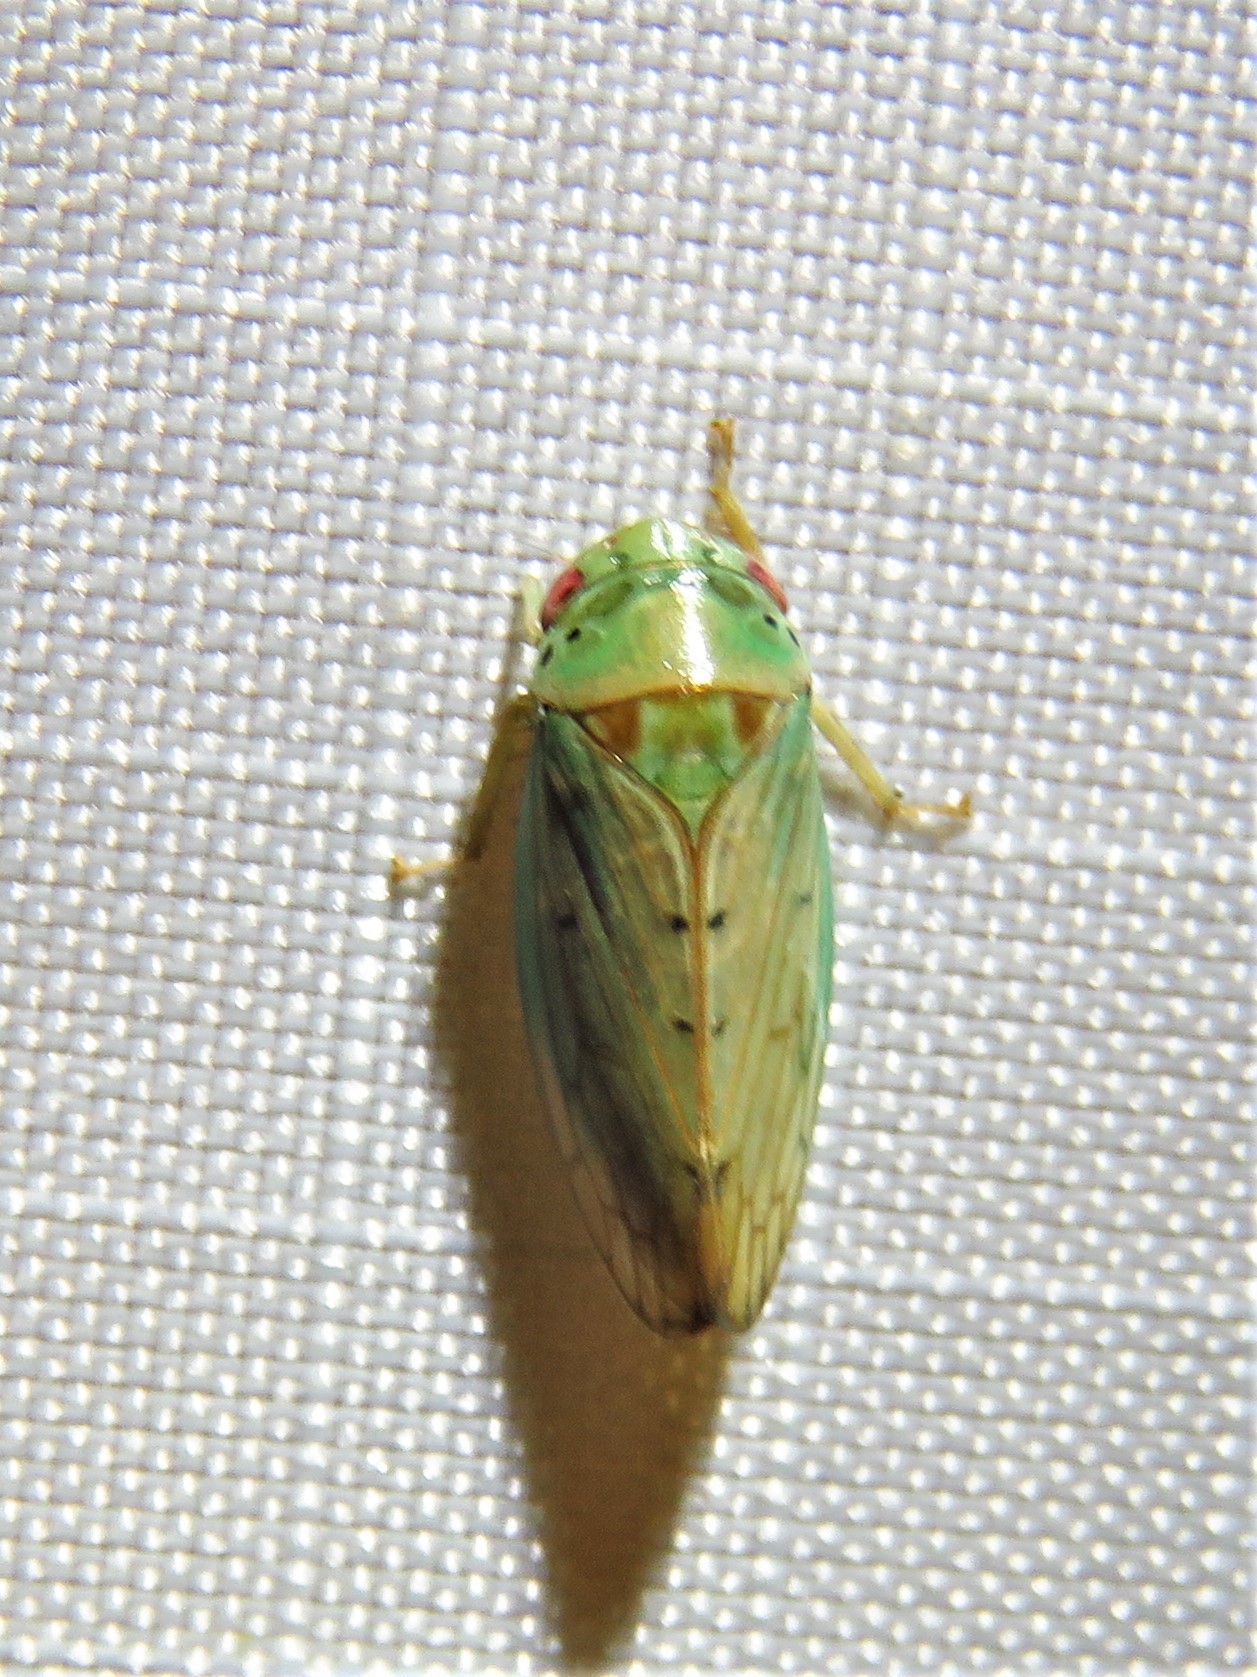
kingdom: Animalia
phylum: Arthropoda
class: Insecta
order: Hemiptera
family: Cicadellidae
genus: Polana
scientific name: Polana quadrinotata
